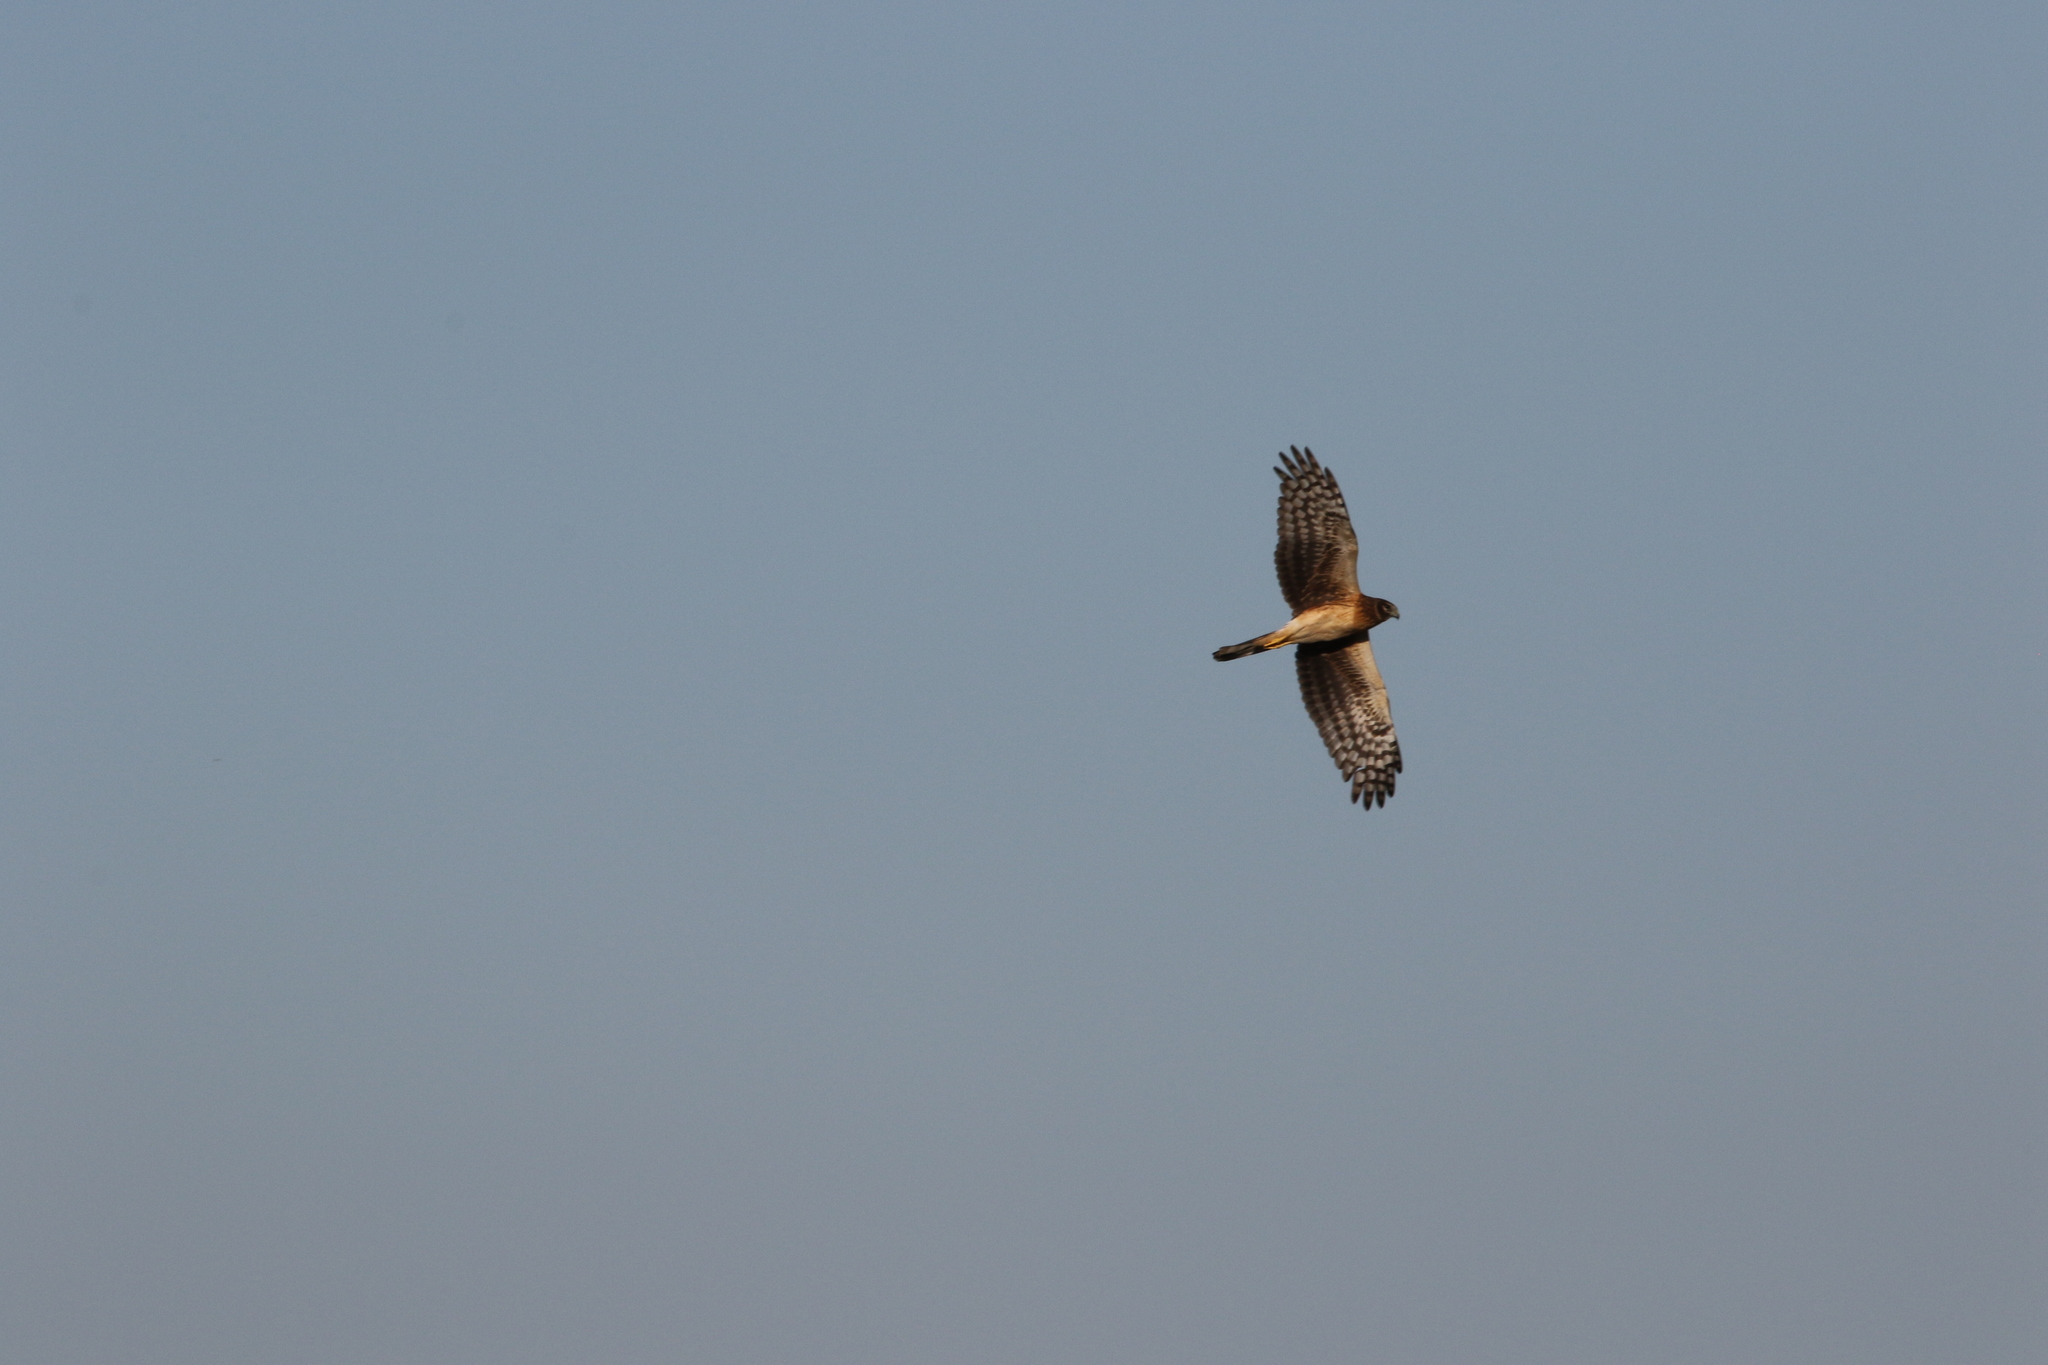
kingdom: Animalia
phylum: Chordata
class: Aves
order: Accipitriformes
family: Accipitridae
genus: Circus
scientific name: Circus cyaneus
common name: Hen harrier
